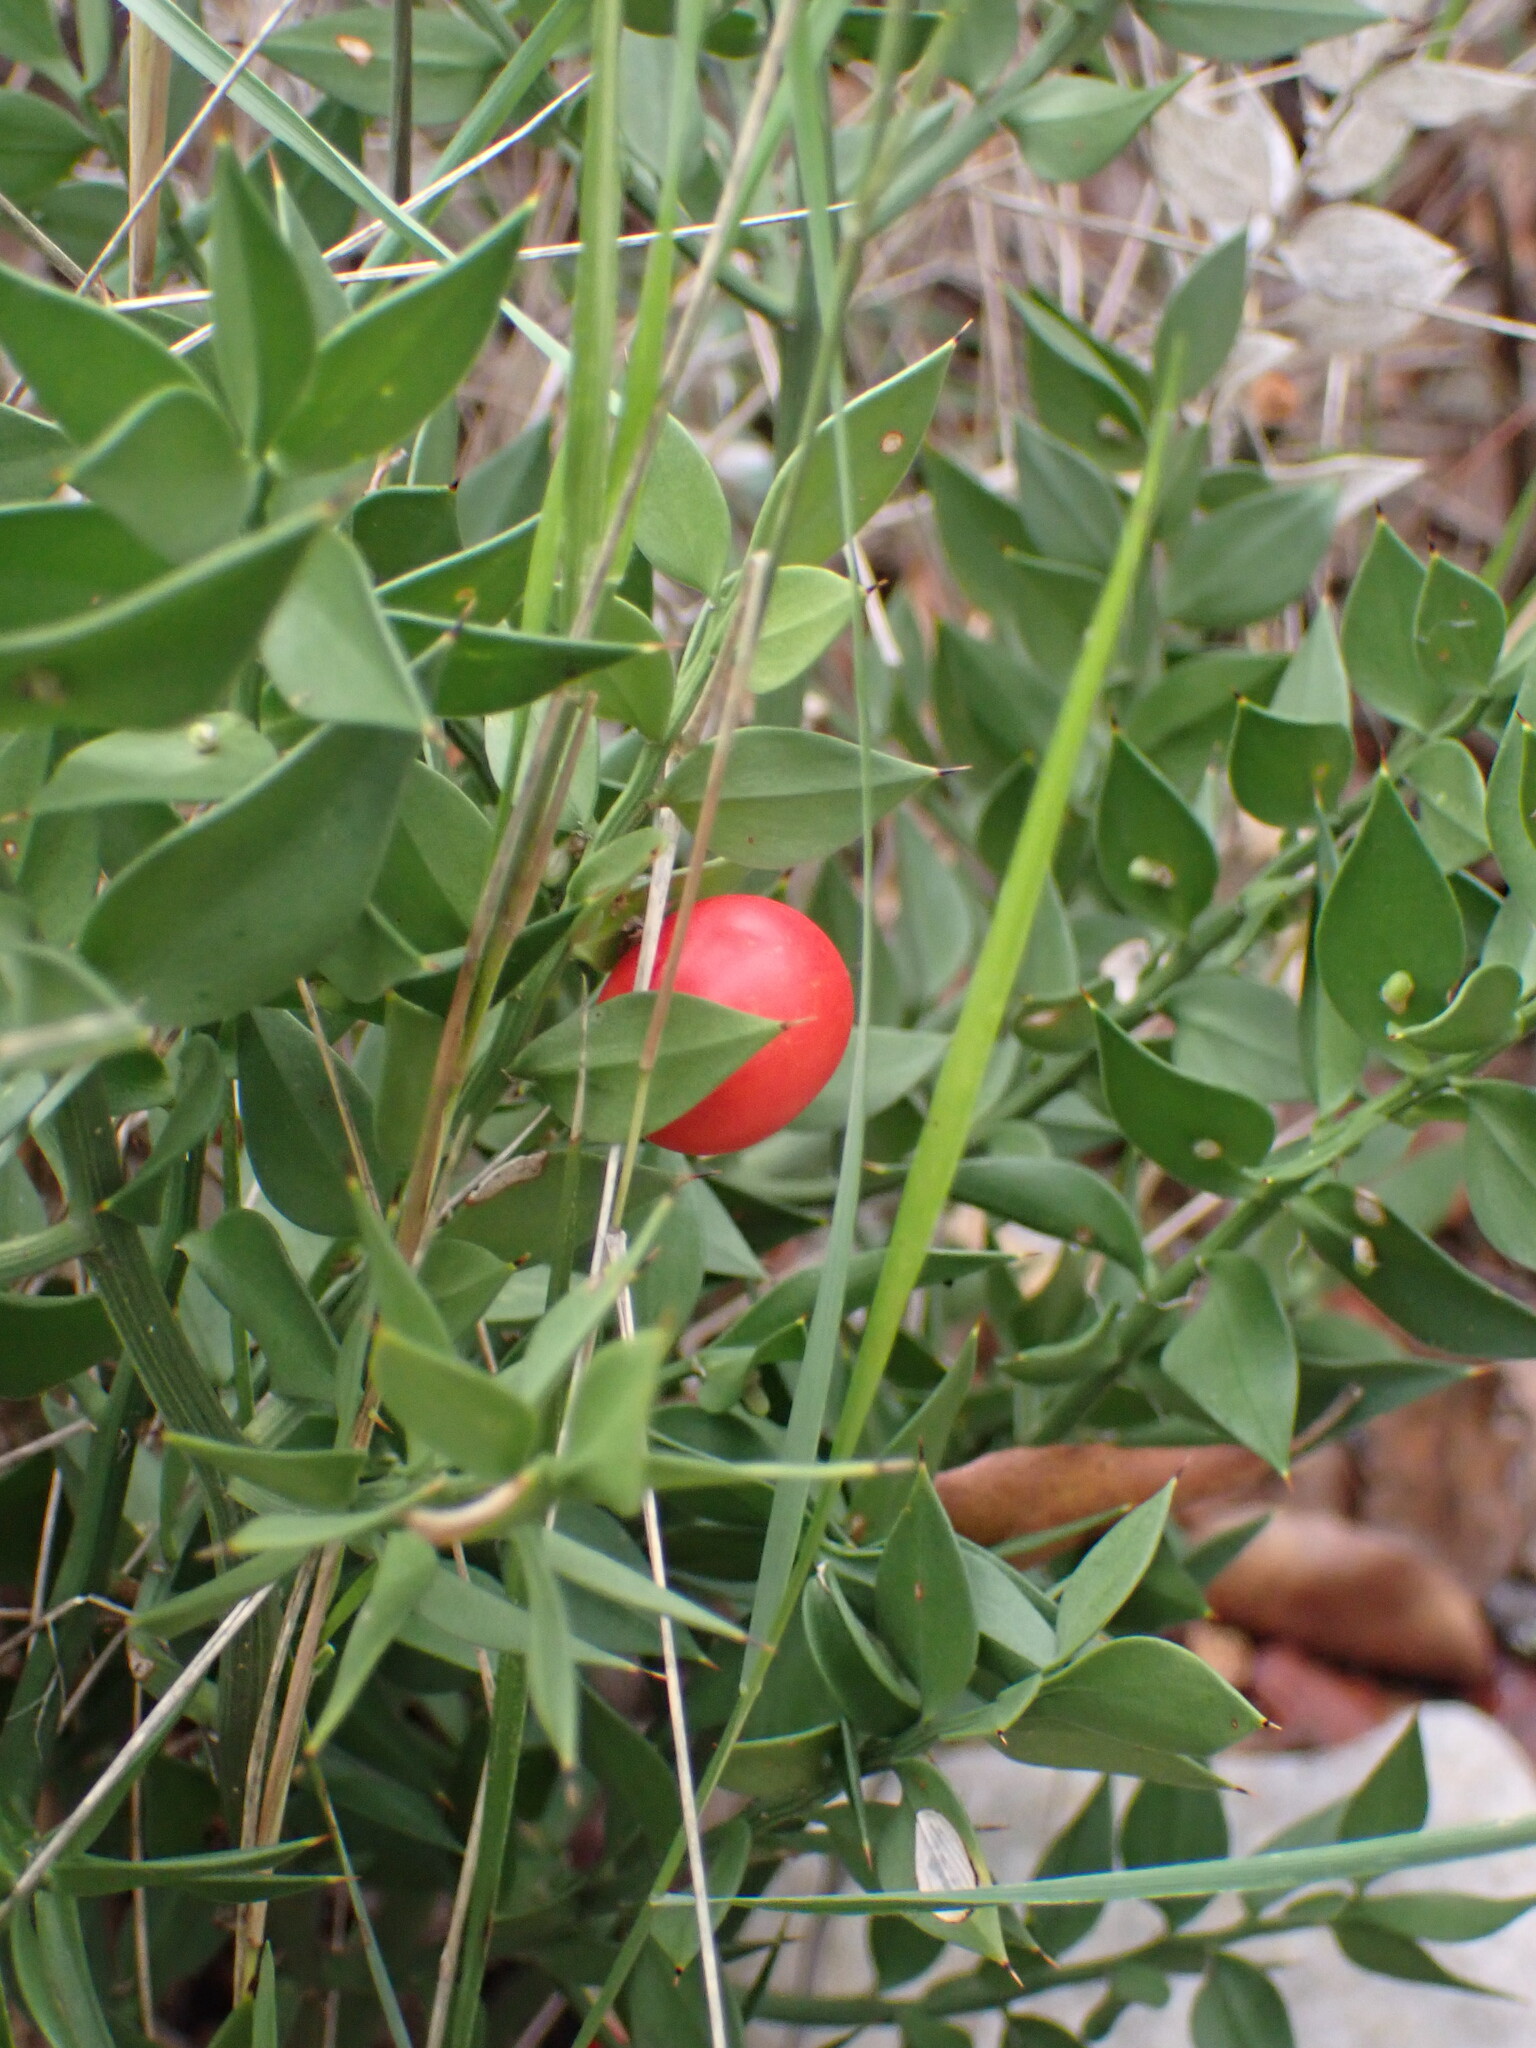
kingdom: Plantae
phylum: Tracheophyta
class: Liliopsida
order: Asparagales
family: Asparagaceae
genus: Ruscus
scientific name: Ruscus aculeatus
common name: Butcher's-broom
